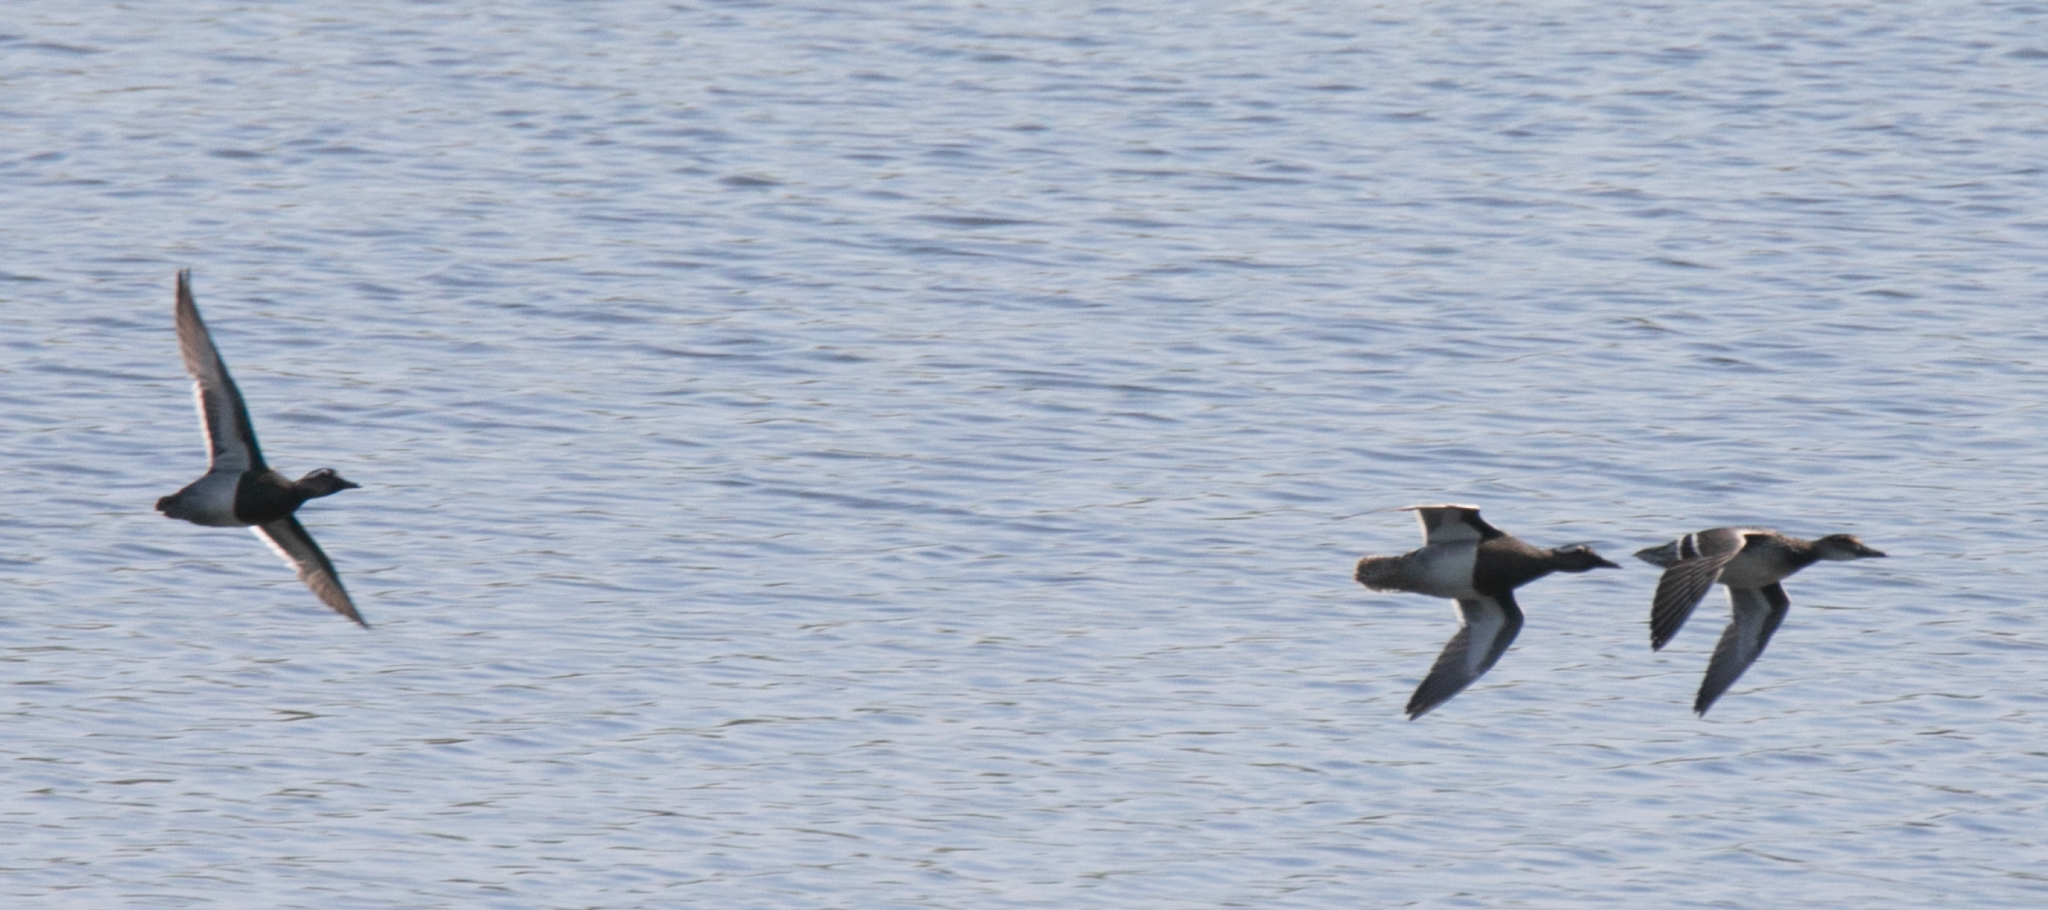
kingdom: Animalia
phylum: Chordata
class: Aves
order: Anseriformes
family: Anatidae
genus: Spatula
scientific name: Spatula querquedula
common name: Garganey
